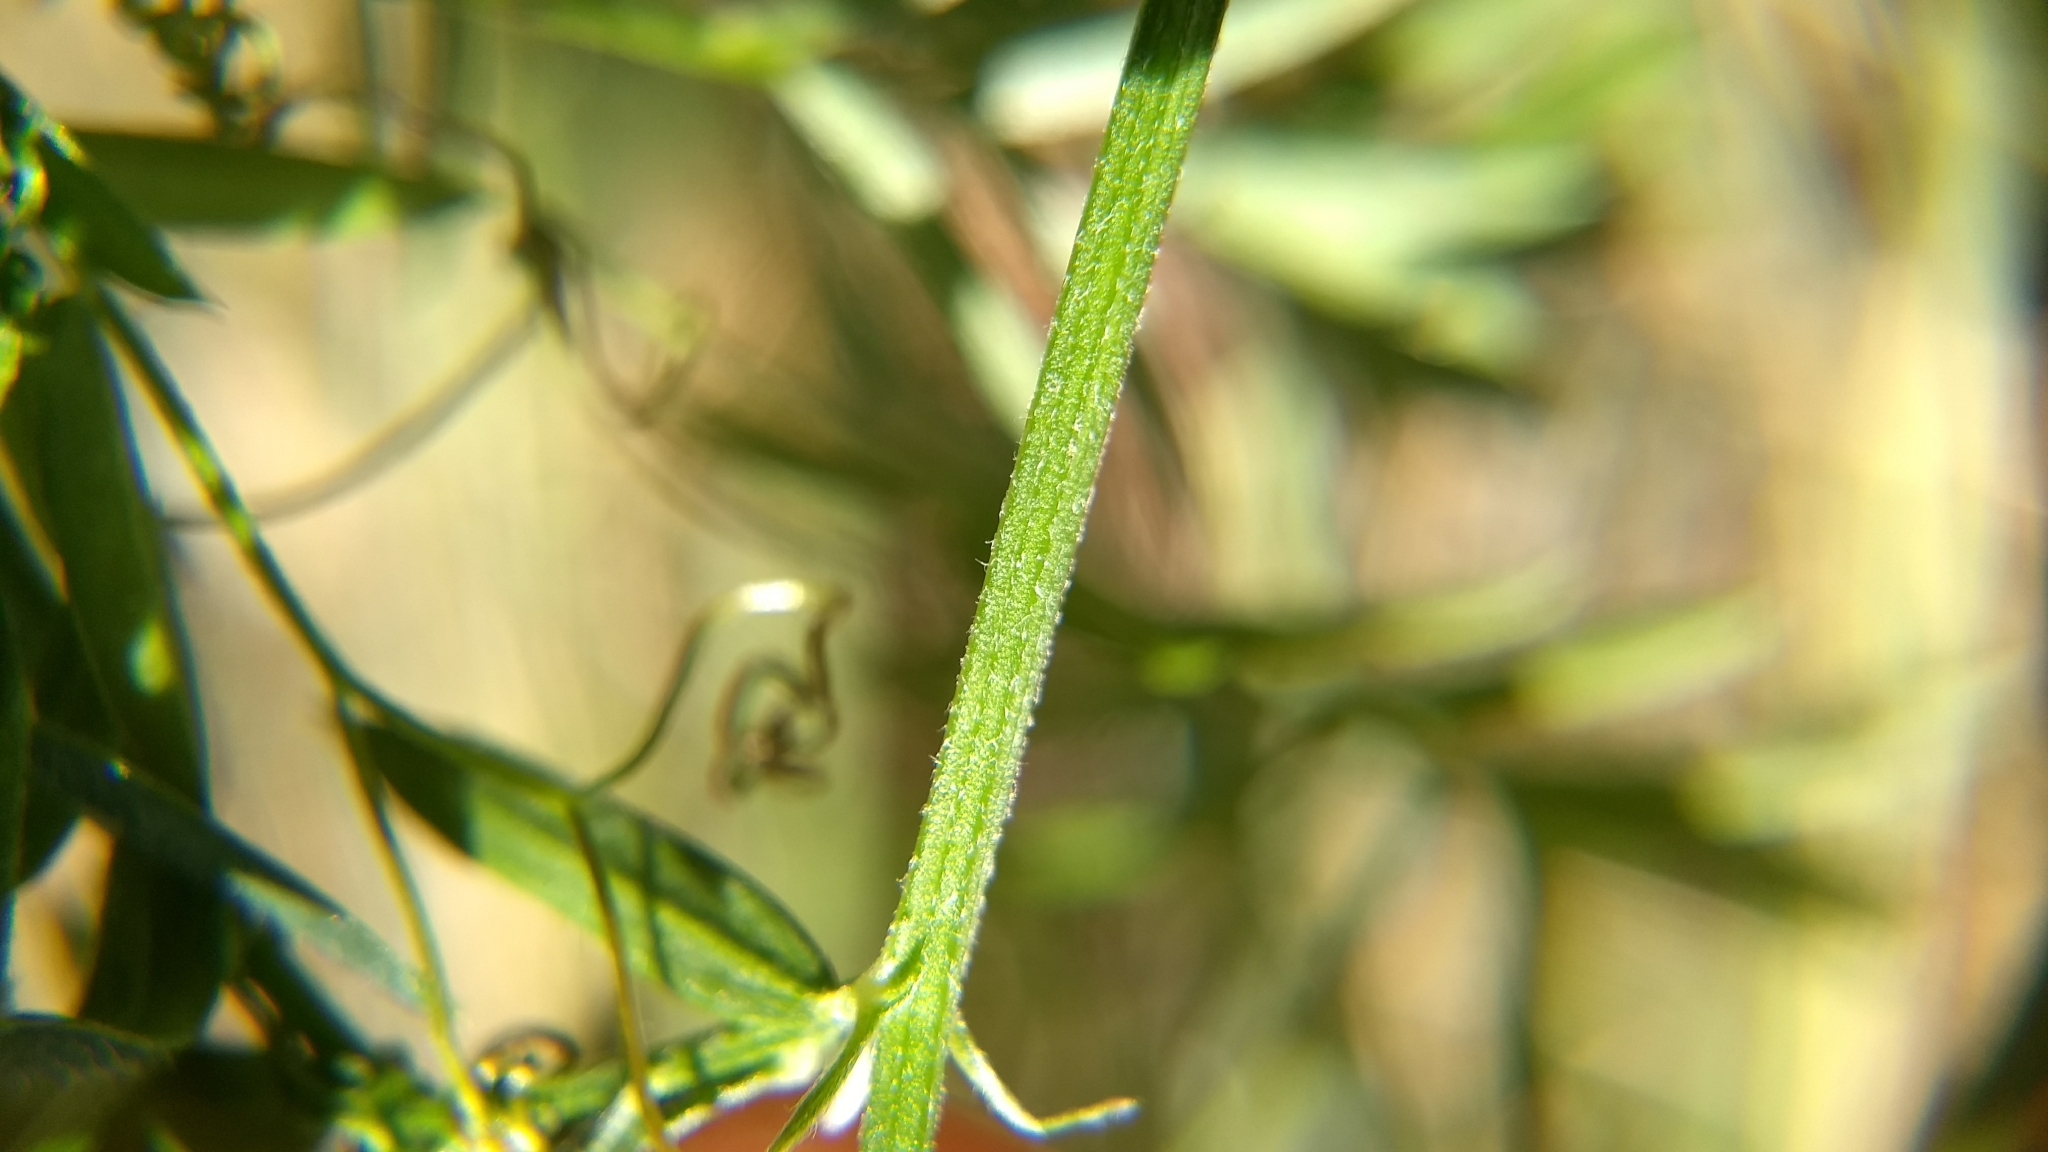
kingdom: Plantae
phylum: Tracheophyta
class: Magnoliopsida
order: Fabales
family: Fabaceae
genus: Vicia
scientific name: Vicia cracca
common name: Bird vetch
